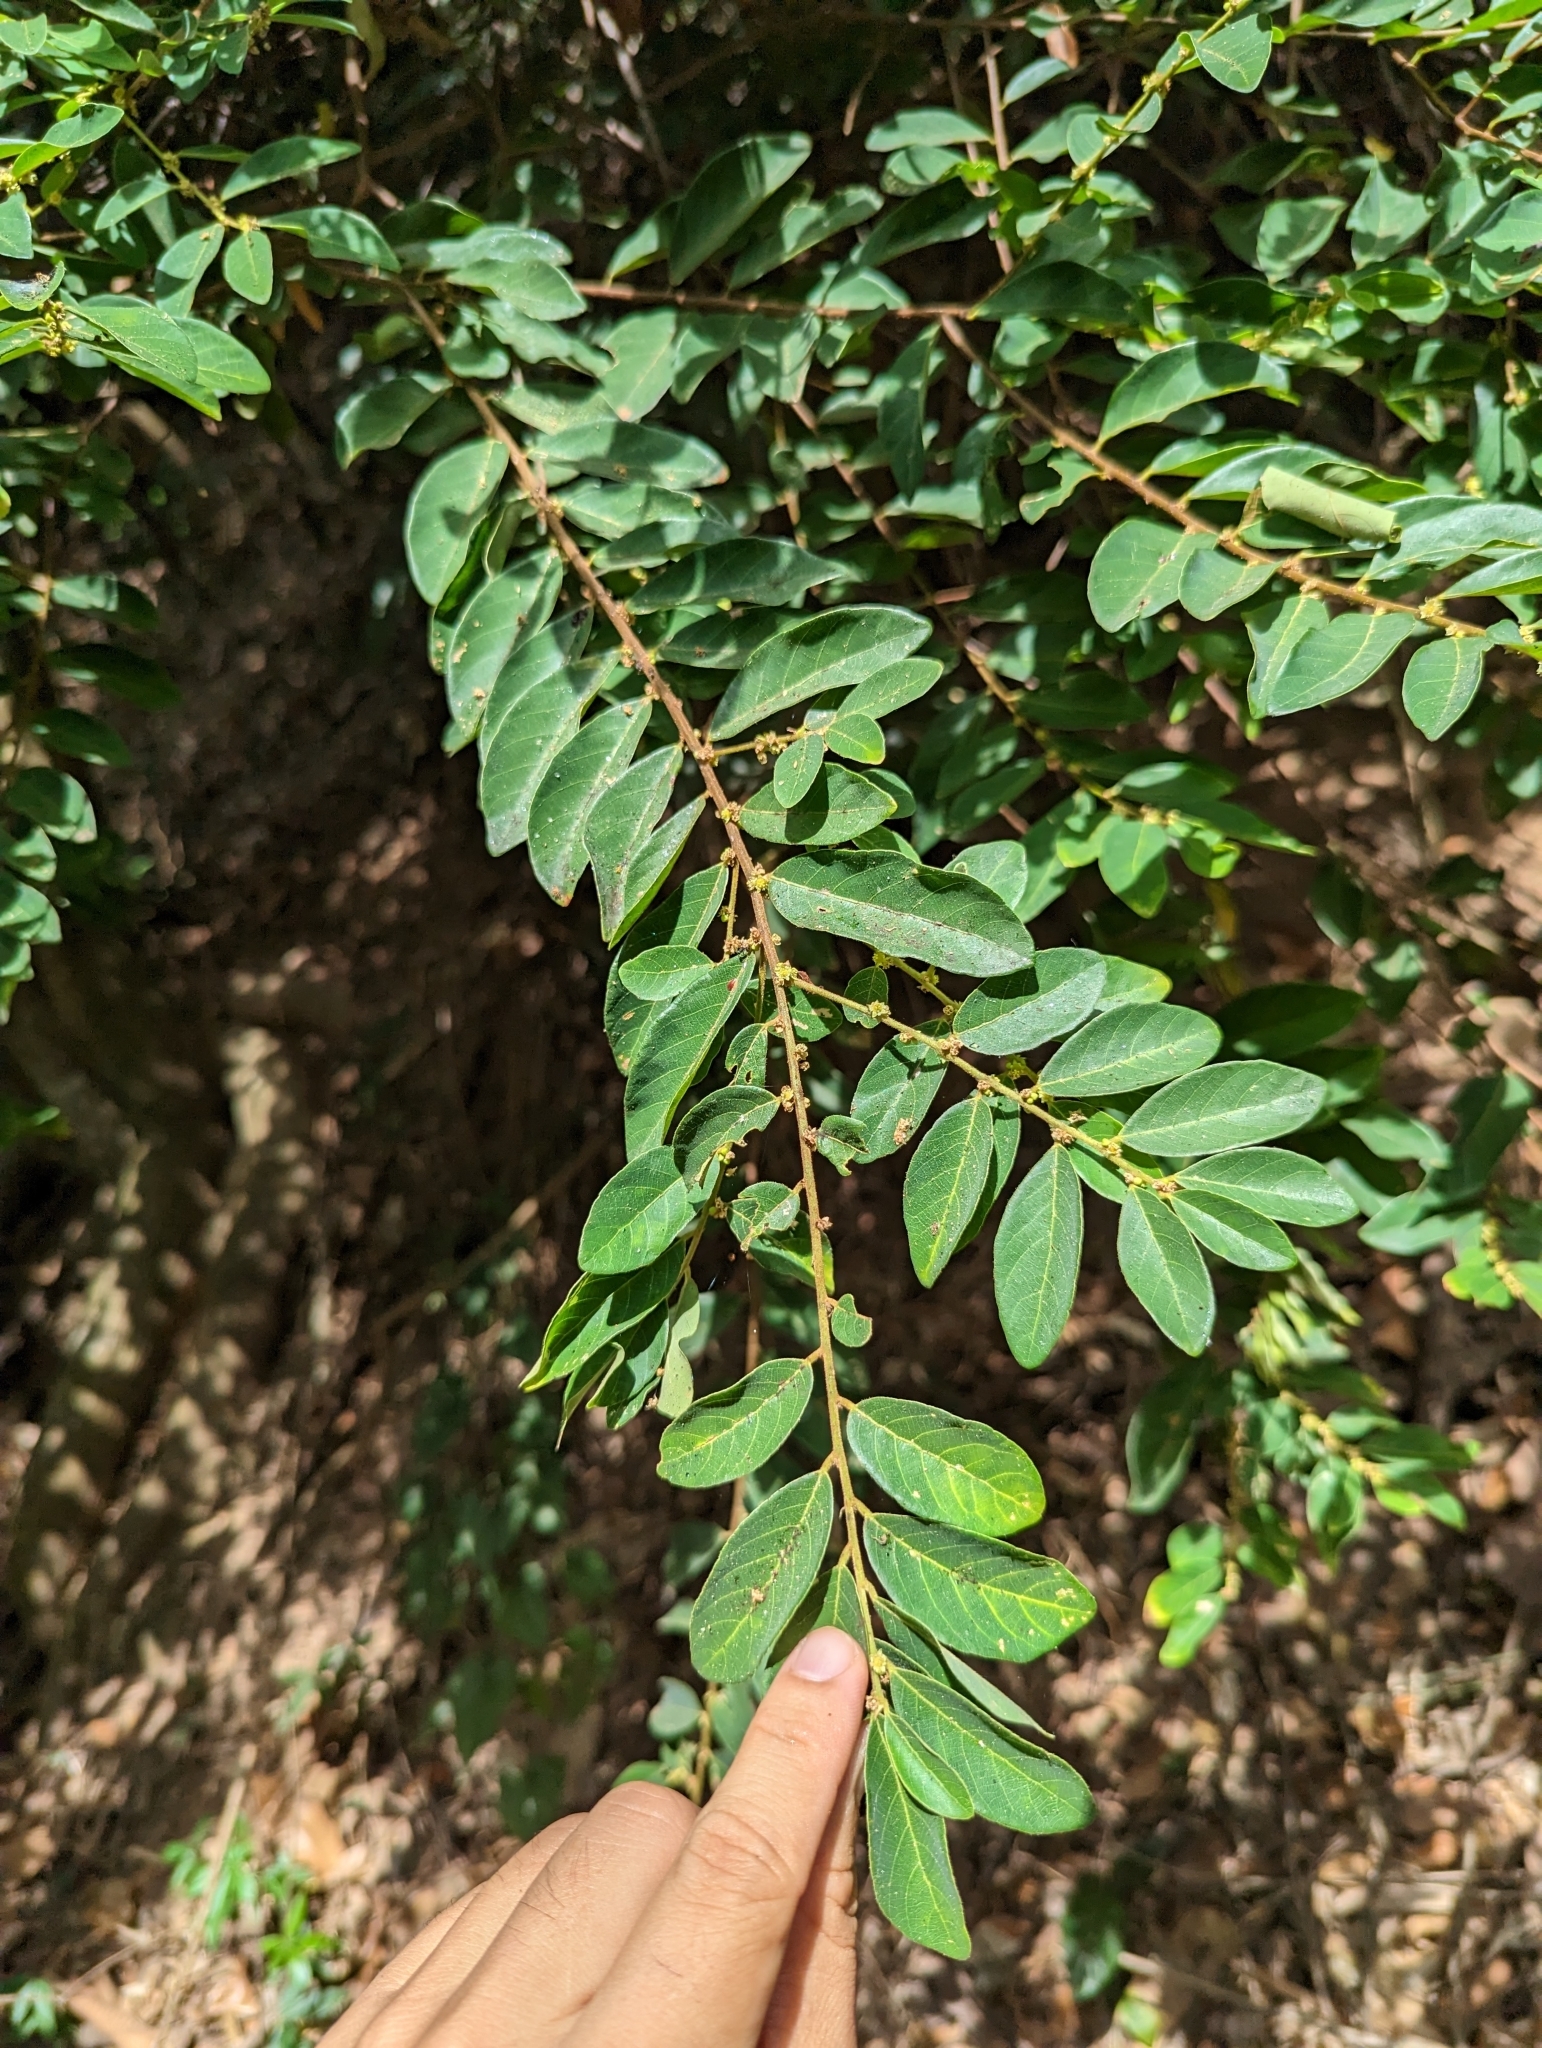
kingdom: Plantae
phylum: Tracheophyta
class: Magnoliopsida
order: Malpighiales
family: Phyllanthaceae
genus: Bridelia
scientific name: Bridelia tomentosa
